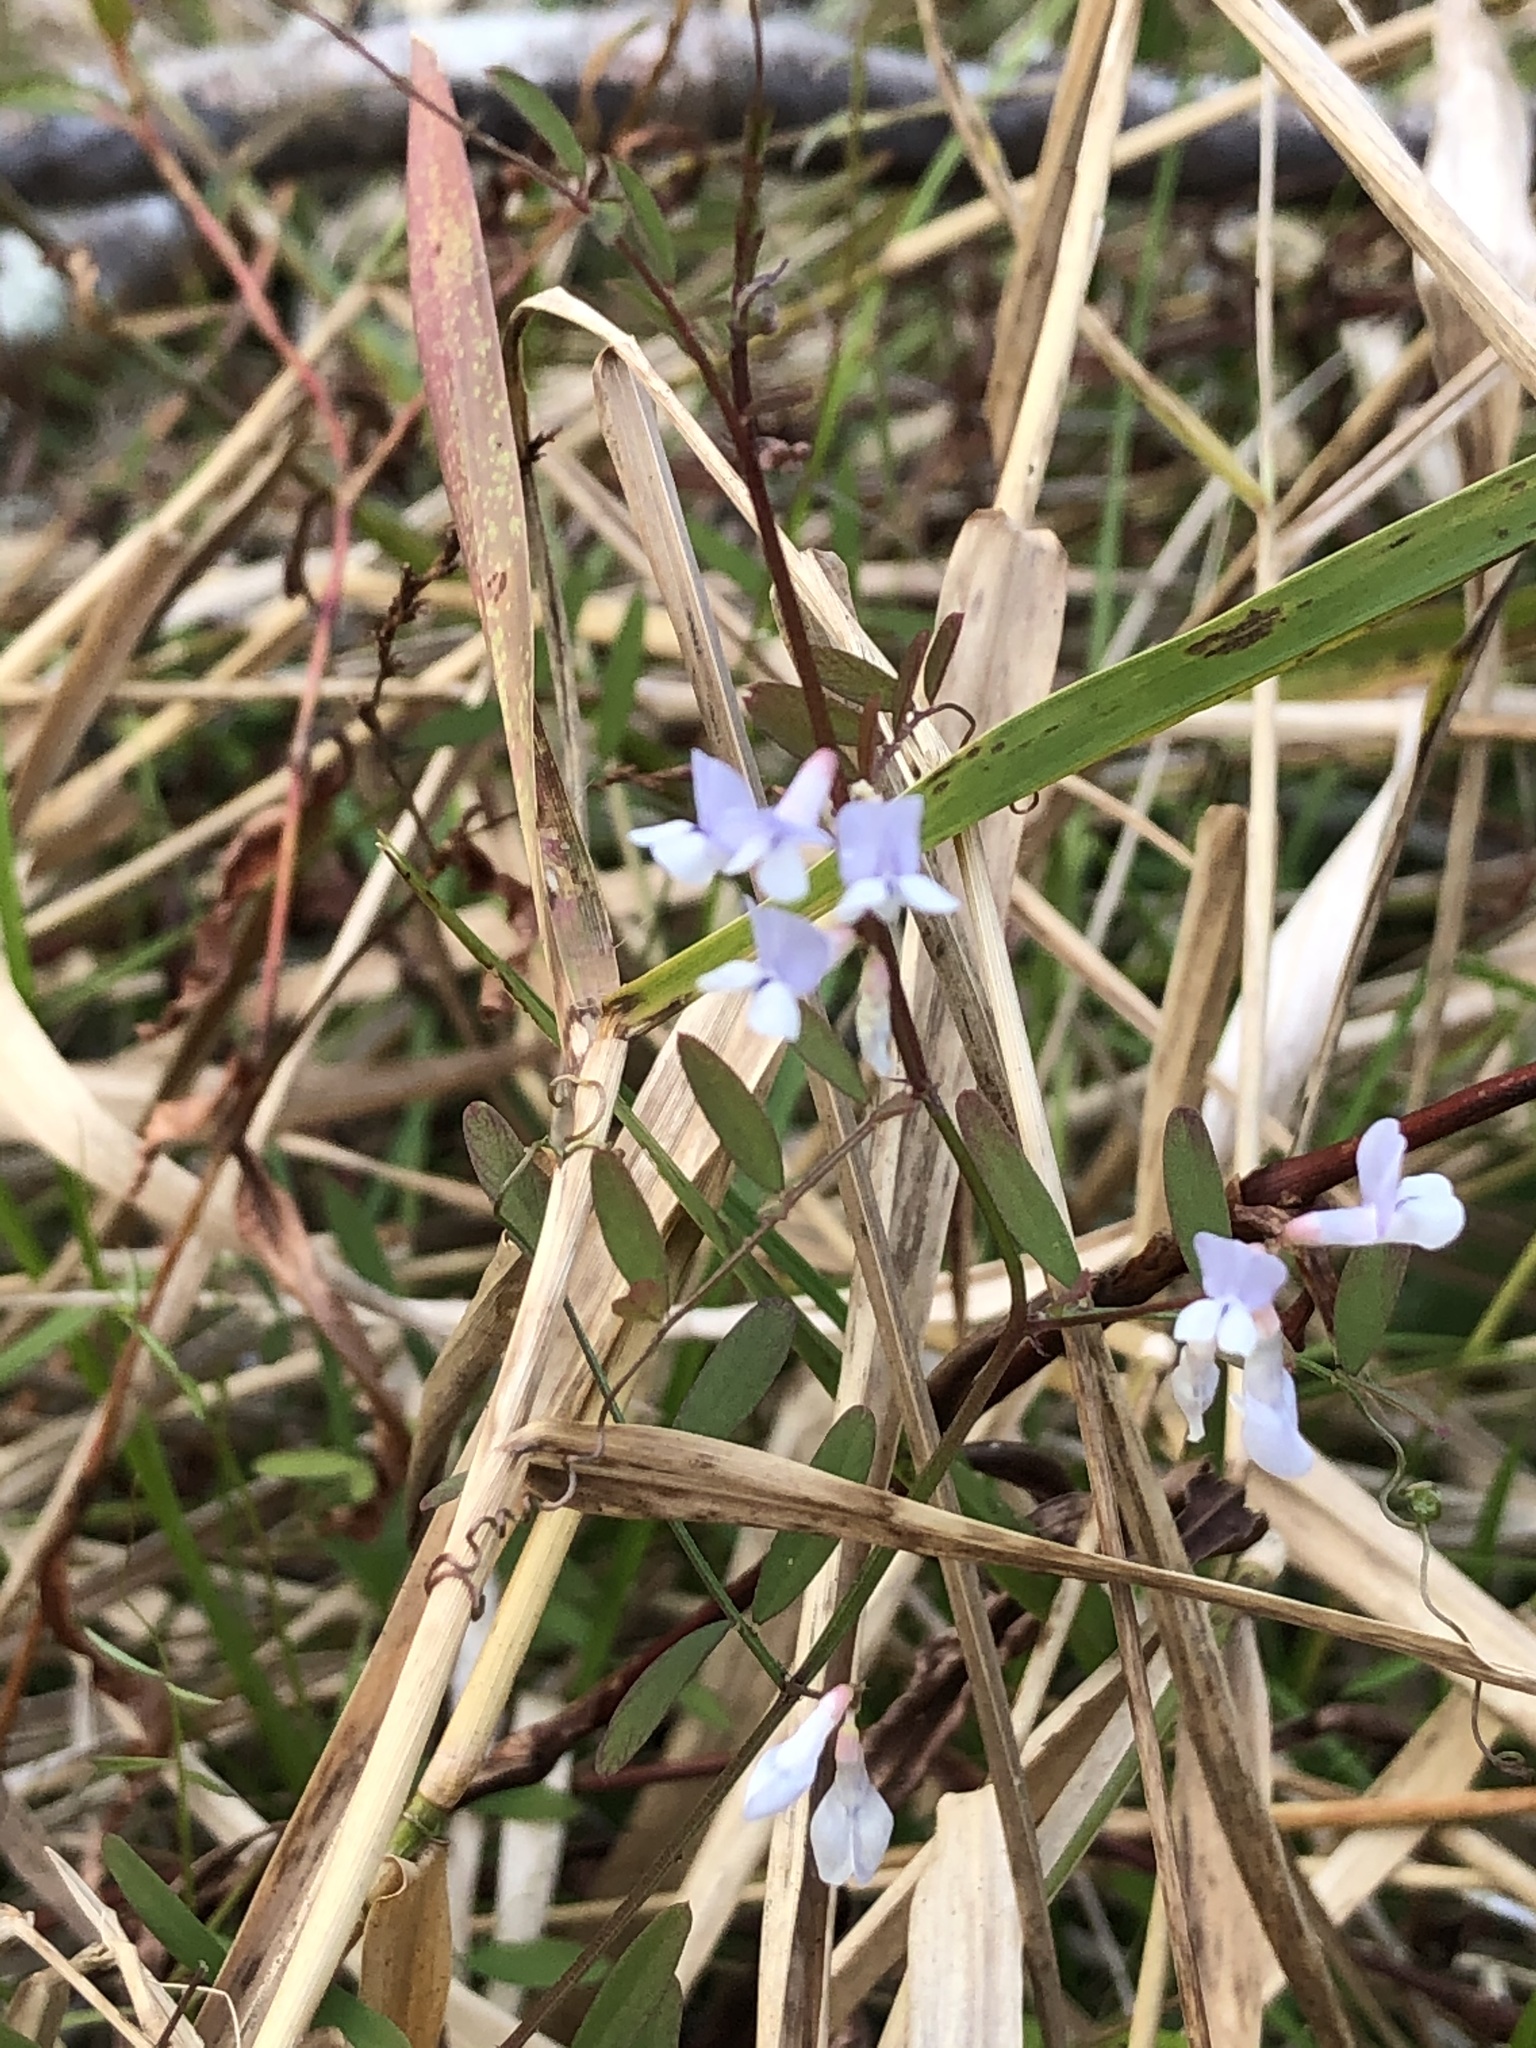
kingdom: Plantae
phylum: Tracheophyta
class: Magnoliopsida
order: Fabales
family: Fabaceae
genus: Vicia
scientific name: Vicia floridana
